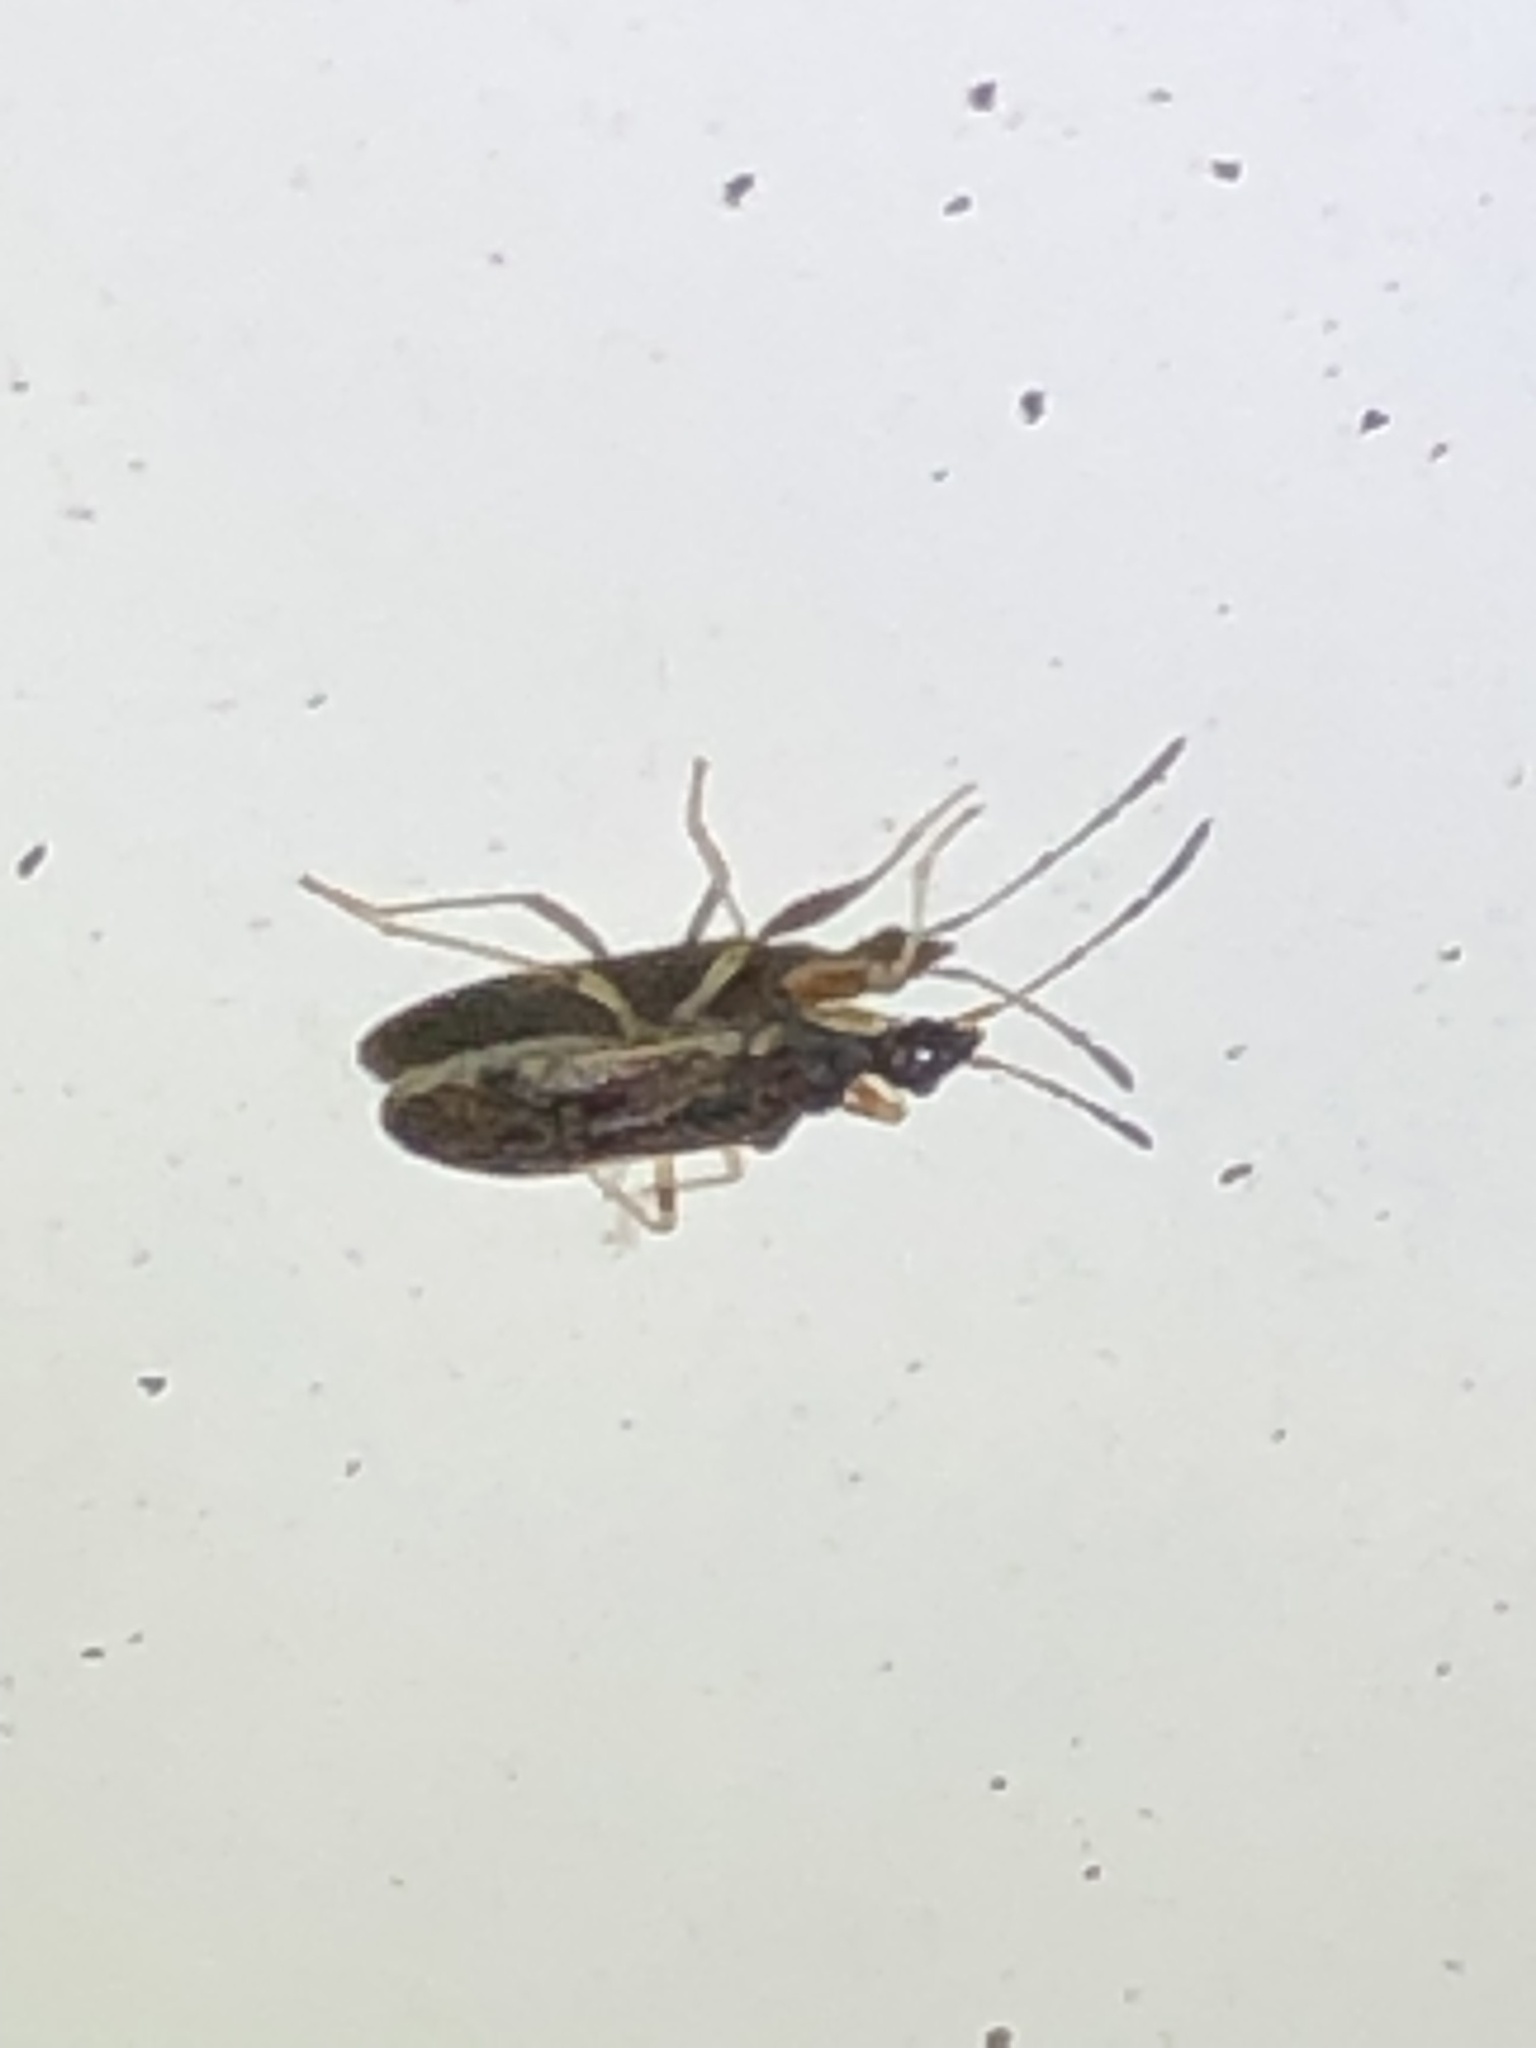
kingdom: Animalia
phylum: Arthropoda
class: Insecta
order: Hemiptera
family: Rhyparochromidae
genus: Heraeus
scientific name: Heraeus plebejus
